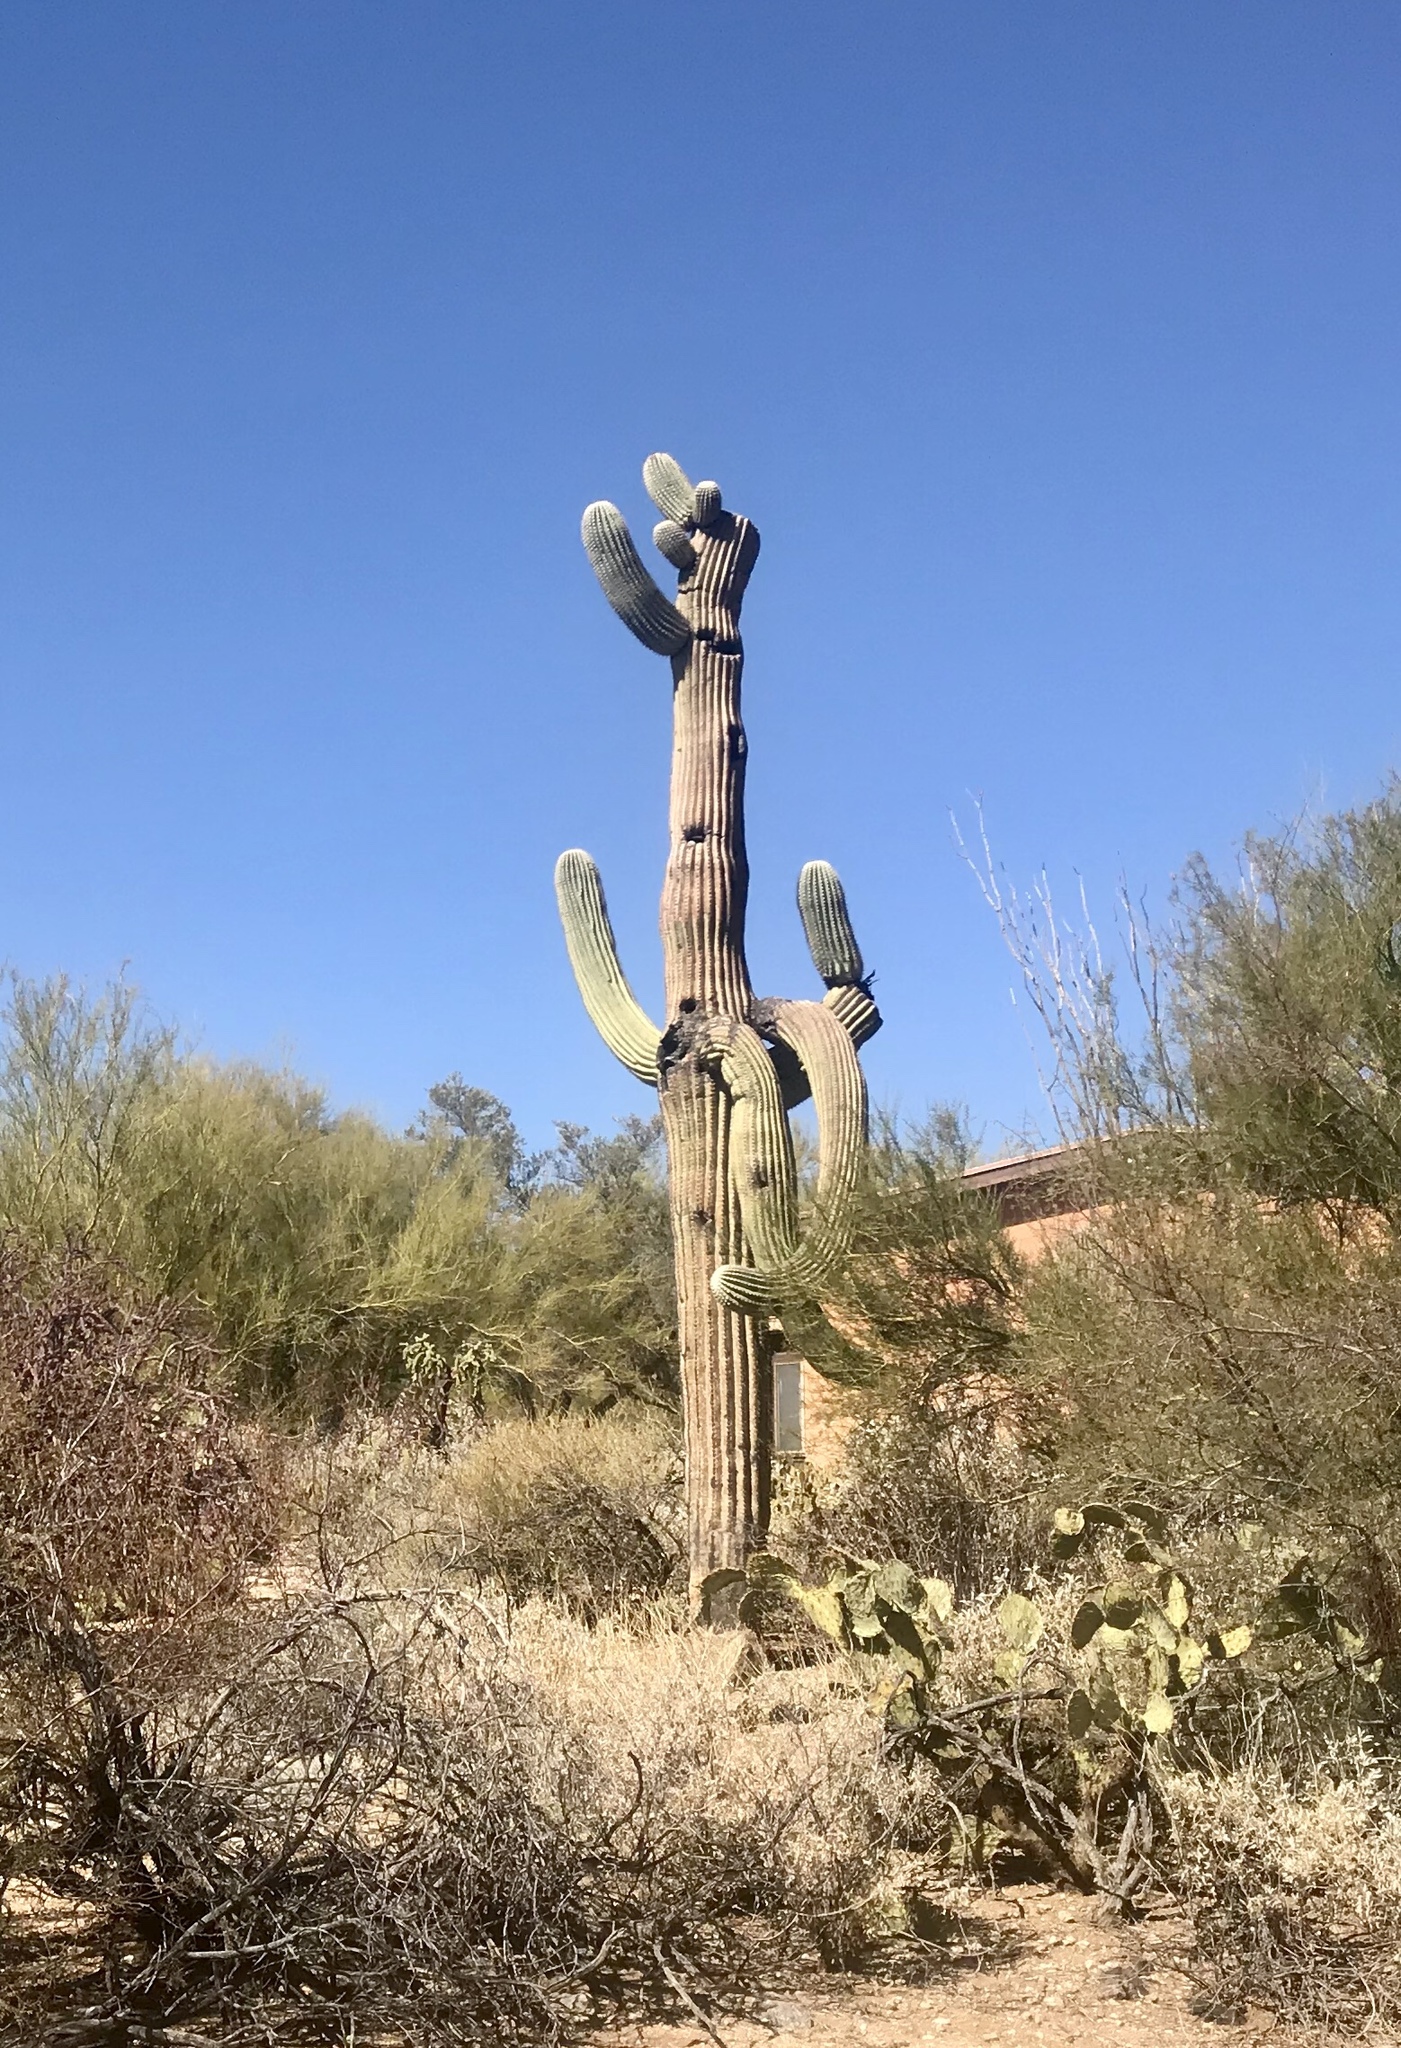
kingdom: Plantae
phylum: Tracheophyta
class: Magnoliopsida
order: Caryophyllales
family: Cactaceae
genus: Carnegiea
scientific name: Carnegiea gigantea
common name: Saguaro
